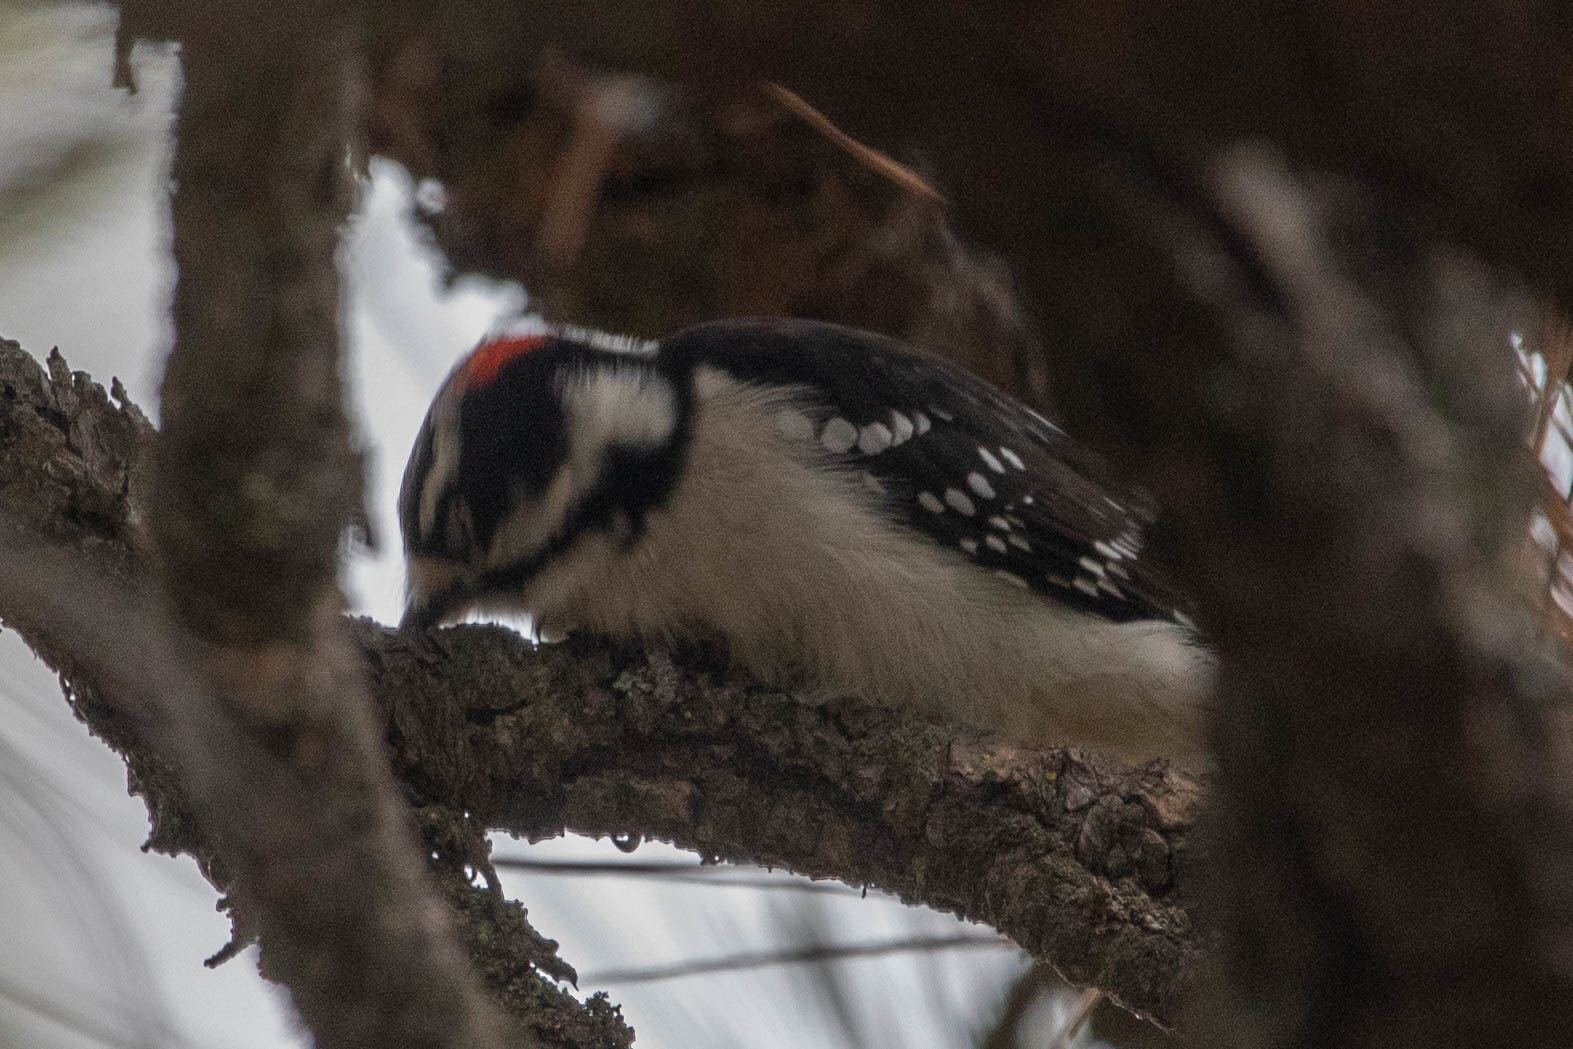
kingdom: Animalia
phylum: Chordata
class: Aves
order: Piciformes
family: Picidae
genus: Dryobates
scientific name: Dryobates pubescens
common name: Downy woodpecker
